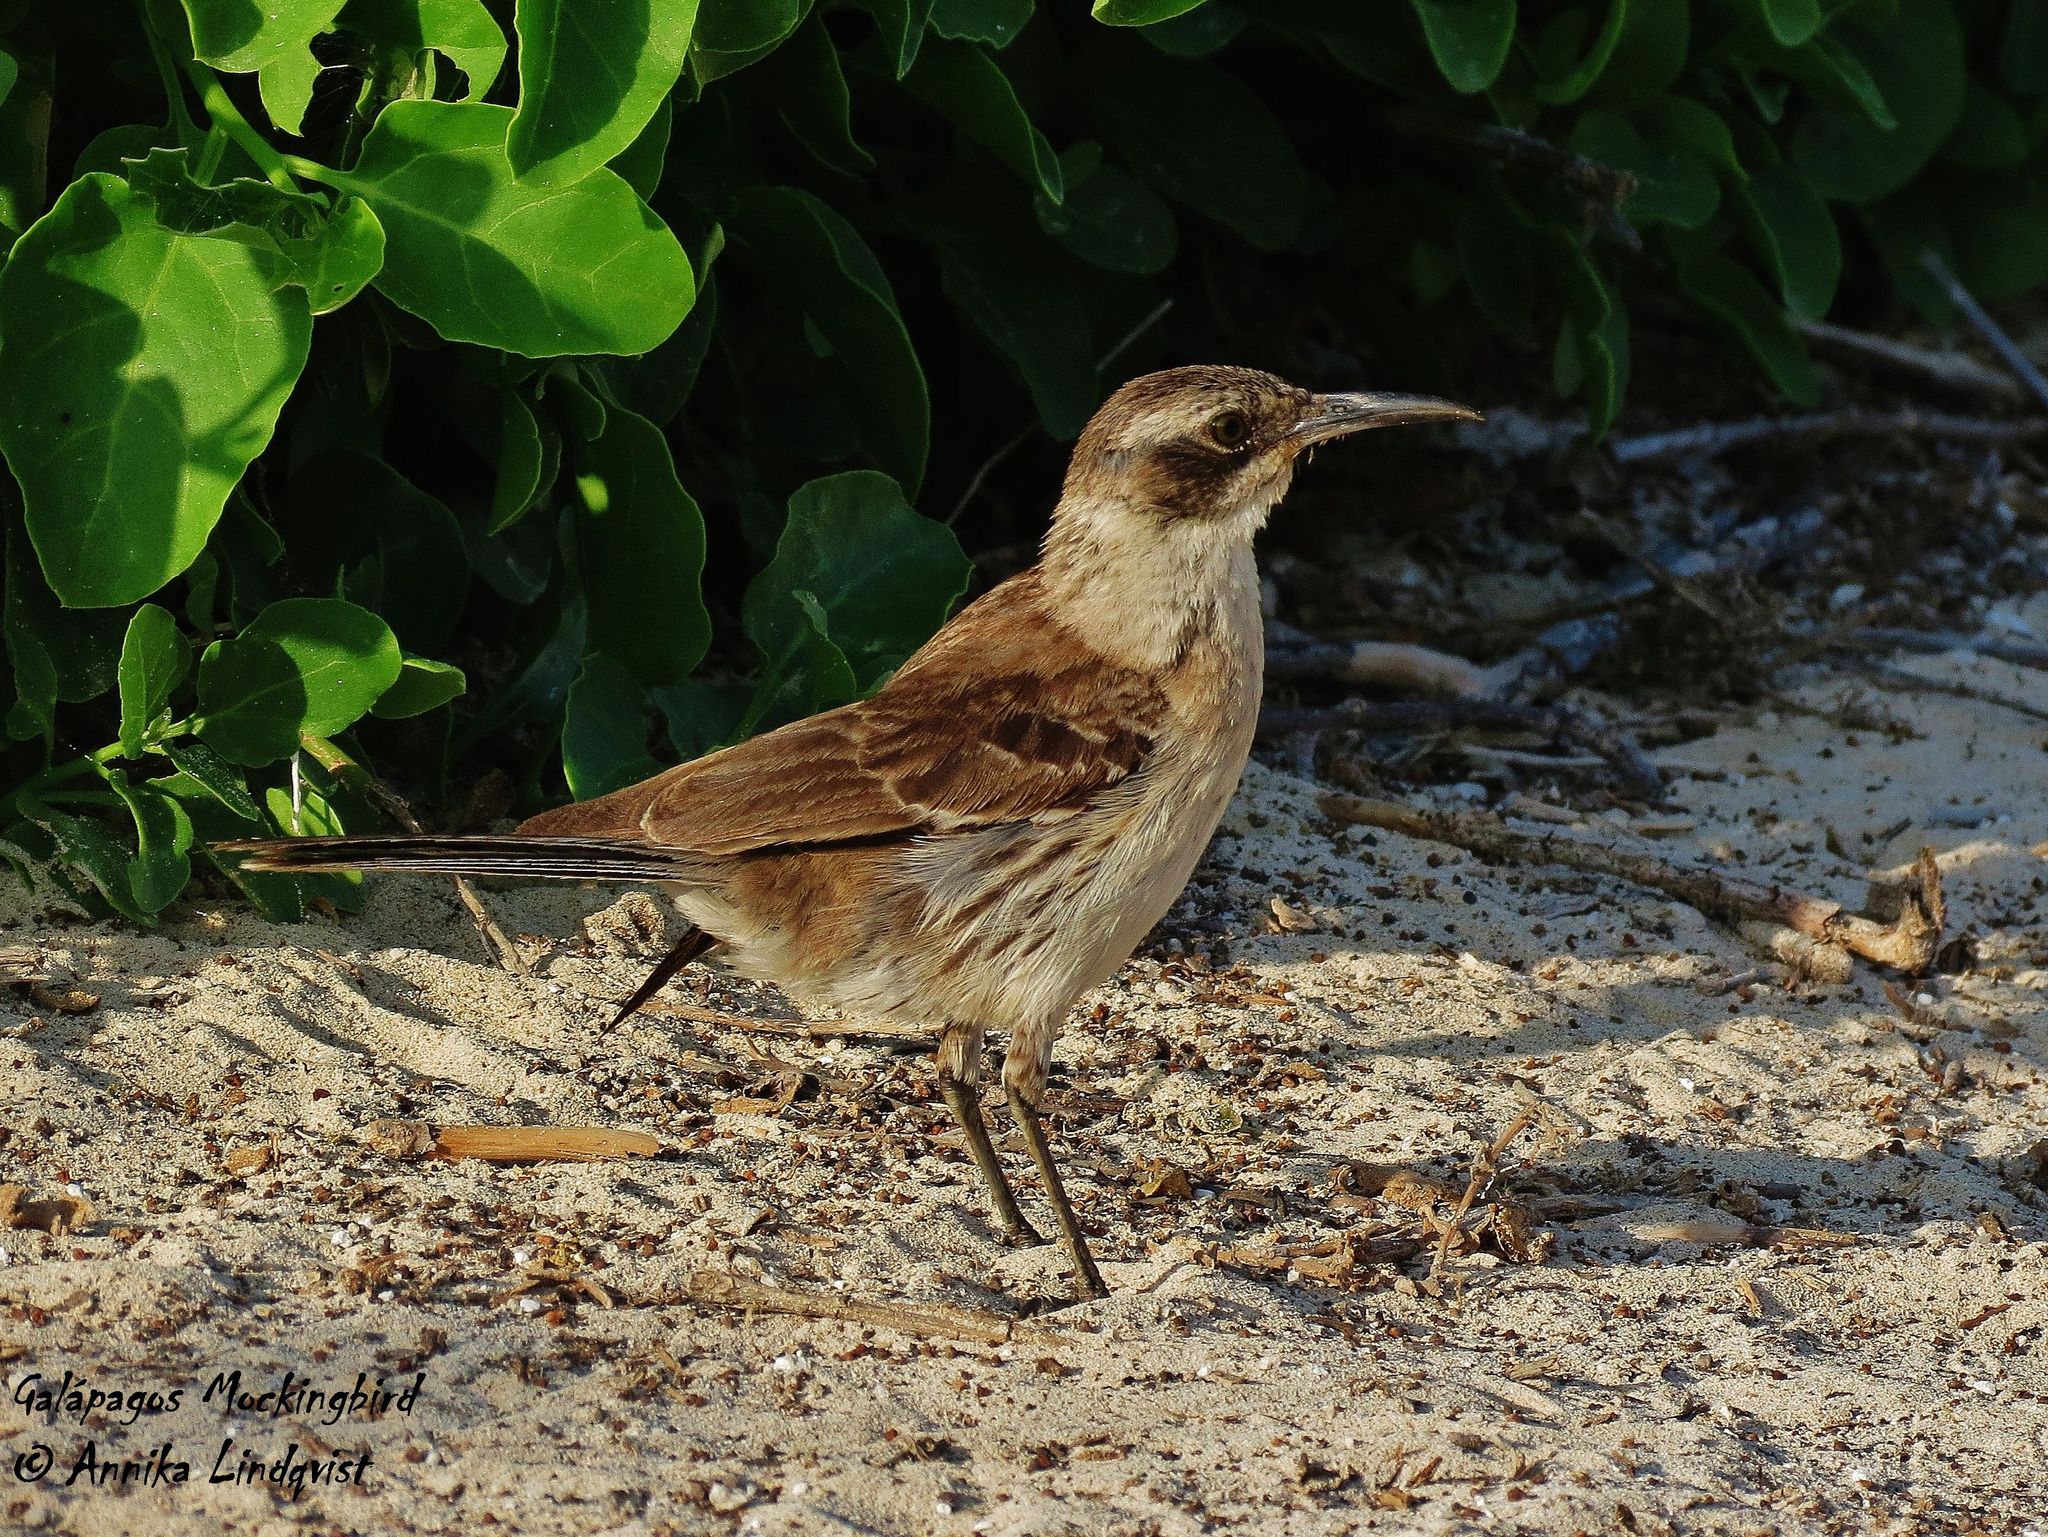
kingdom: Animalia
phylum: Chordata
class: Aves
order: Passeriformes
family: Mimidae
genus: Mimus
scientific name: Mimus parvulus
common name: Galapagos mockingbird
